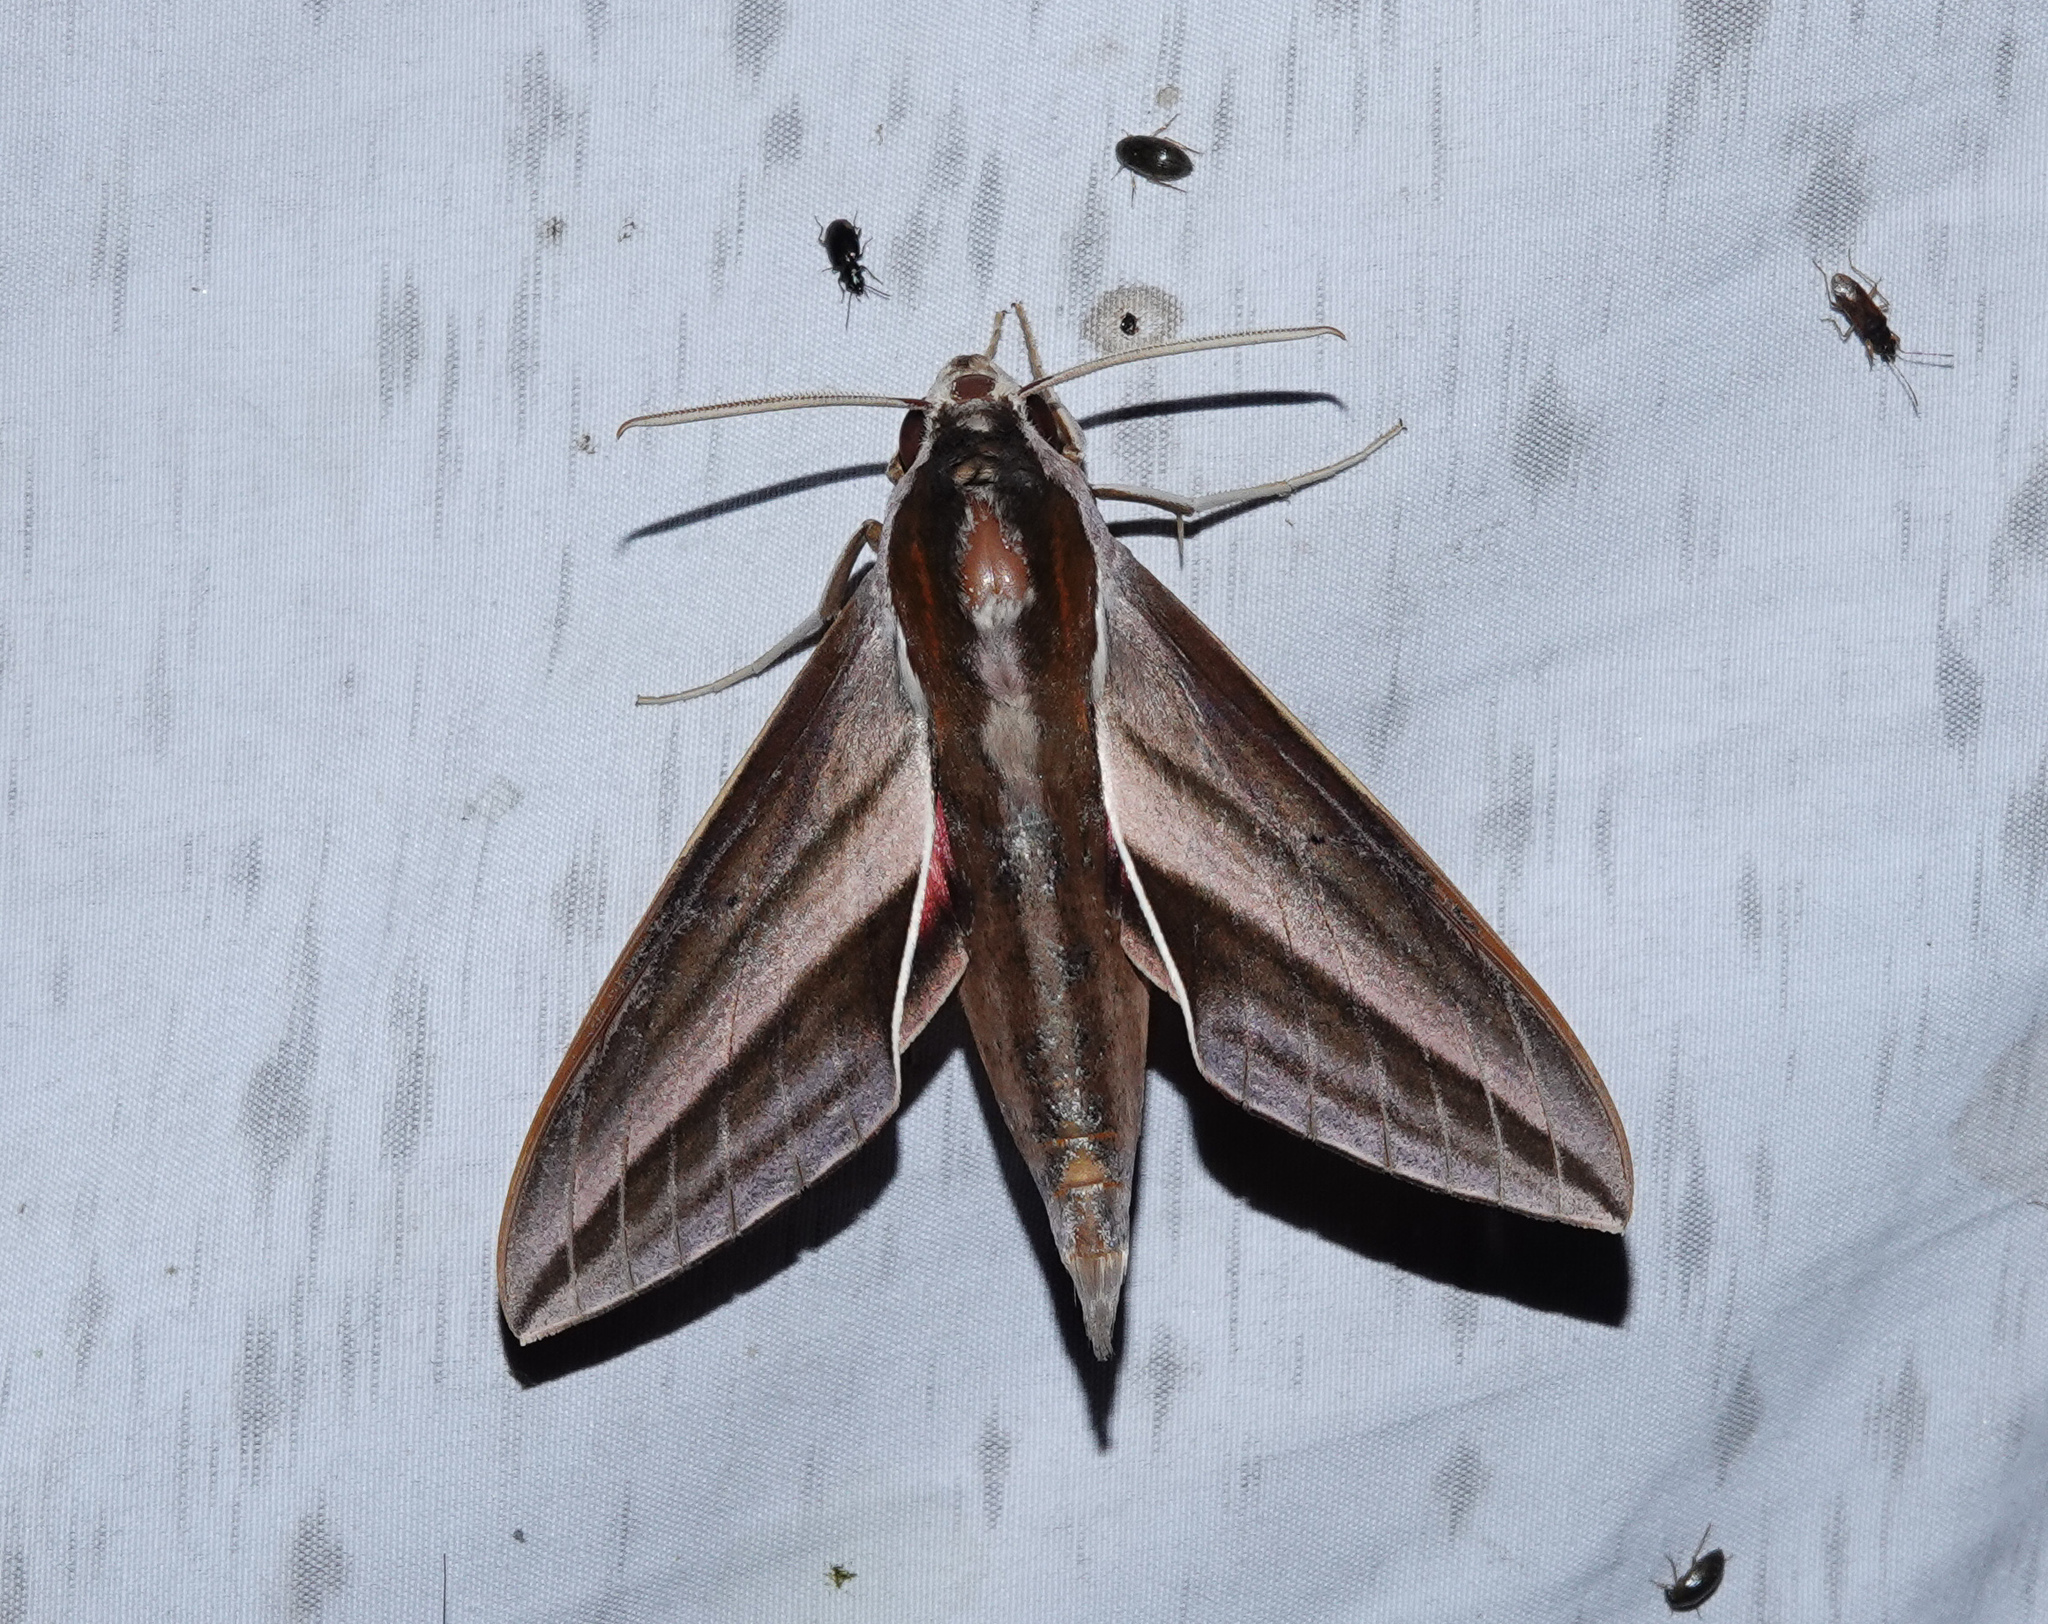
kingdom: Animalia
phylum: Arthropoda
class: Insecta
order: Lepidoptera
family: Sphingidae
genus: Theretra
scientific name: Theretra suffusa
